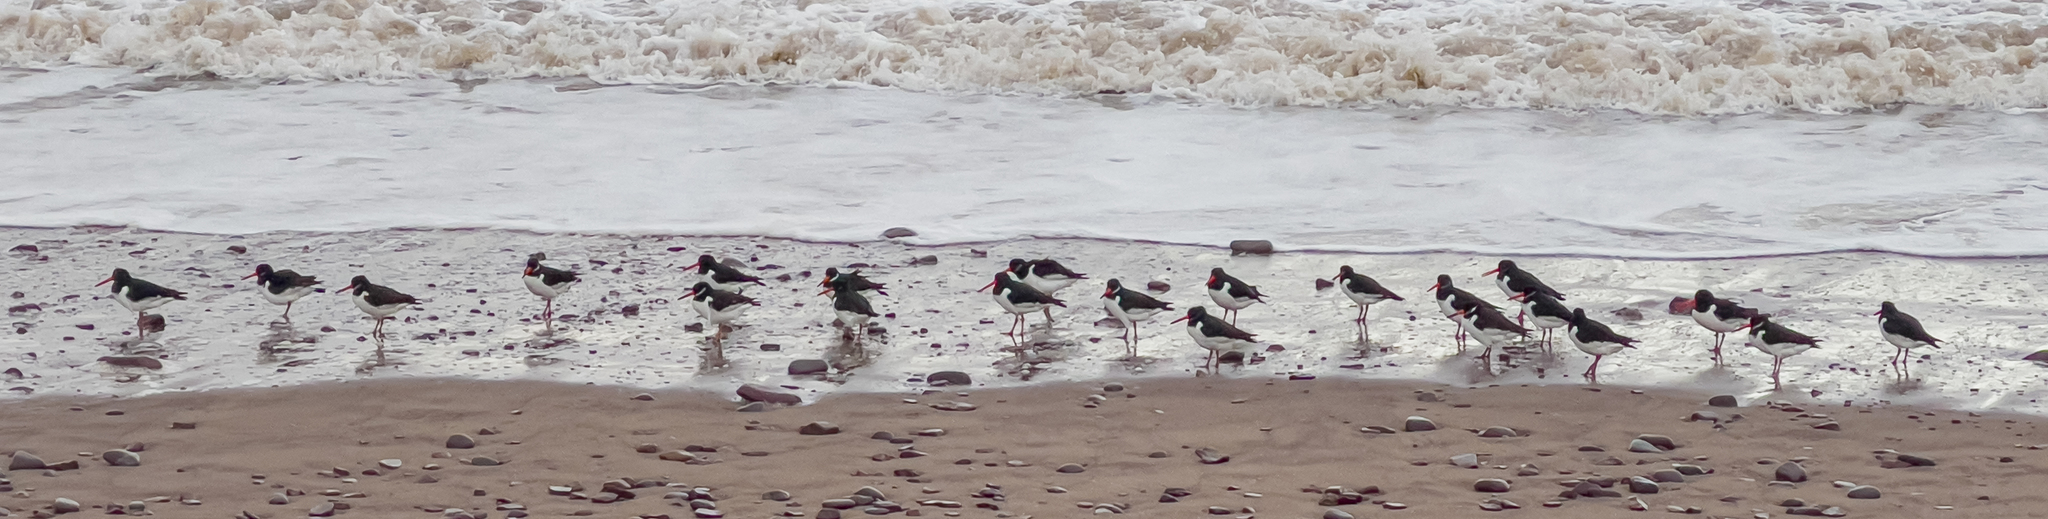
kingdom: Animalia
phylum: Chordata
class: Aves
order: Charadriiformes
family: Haematopodidae
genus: Haematopus
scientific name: Haematopus ostralegus
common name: Eurasian oystercatcher
